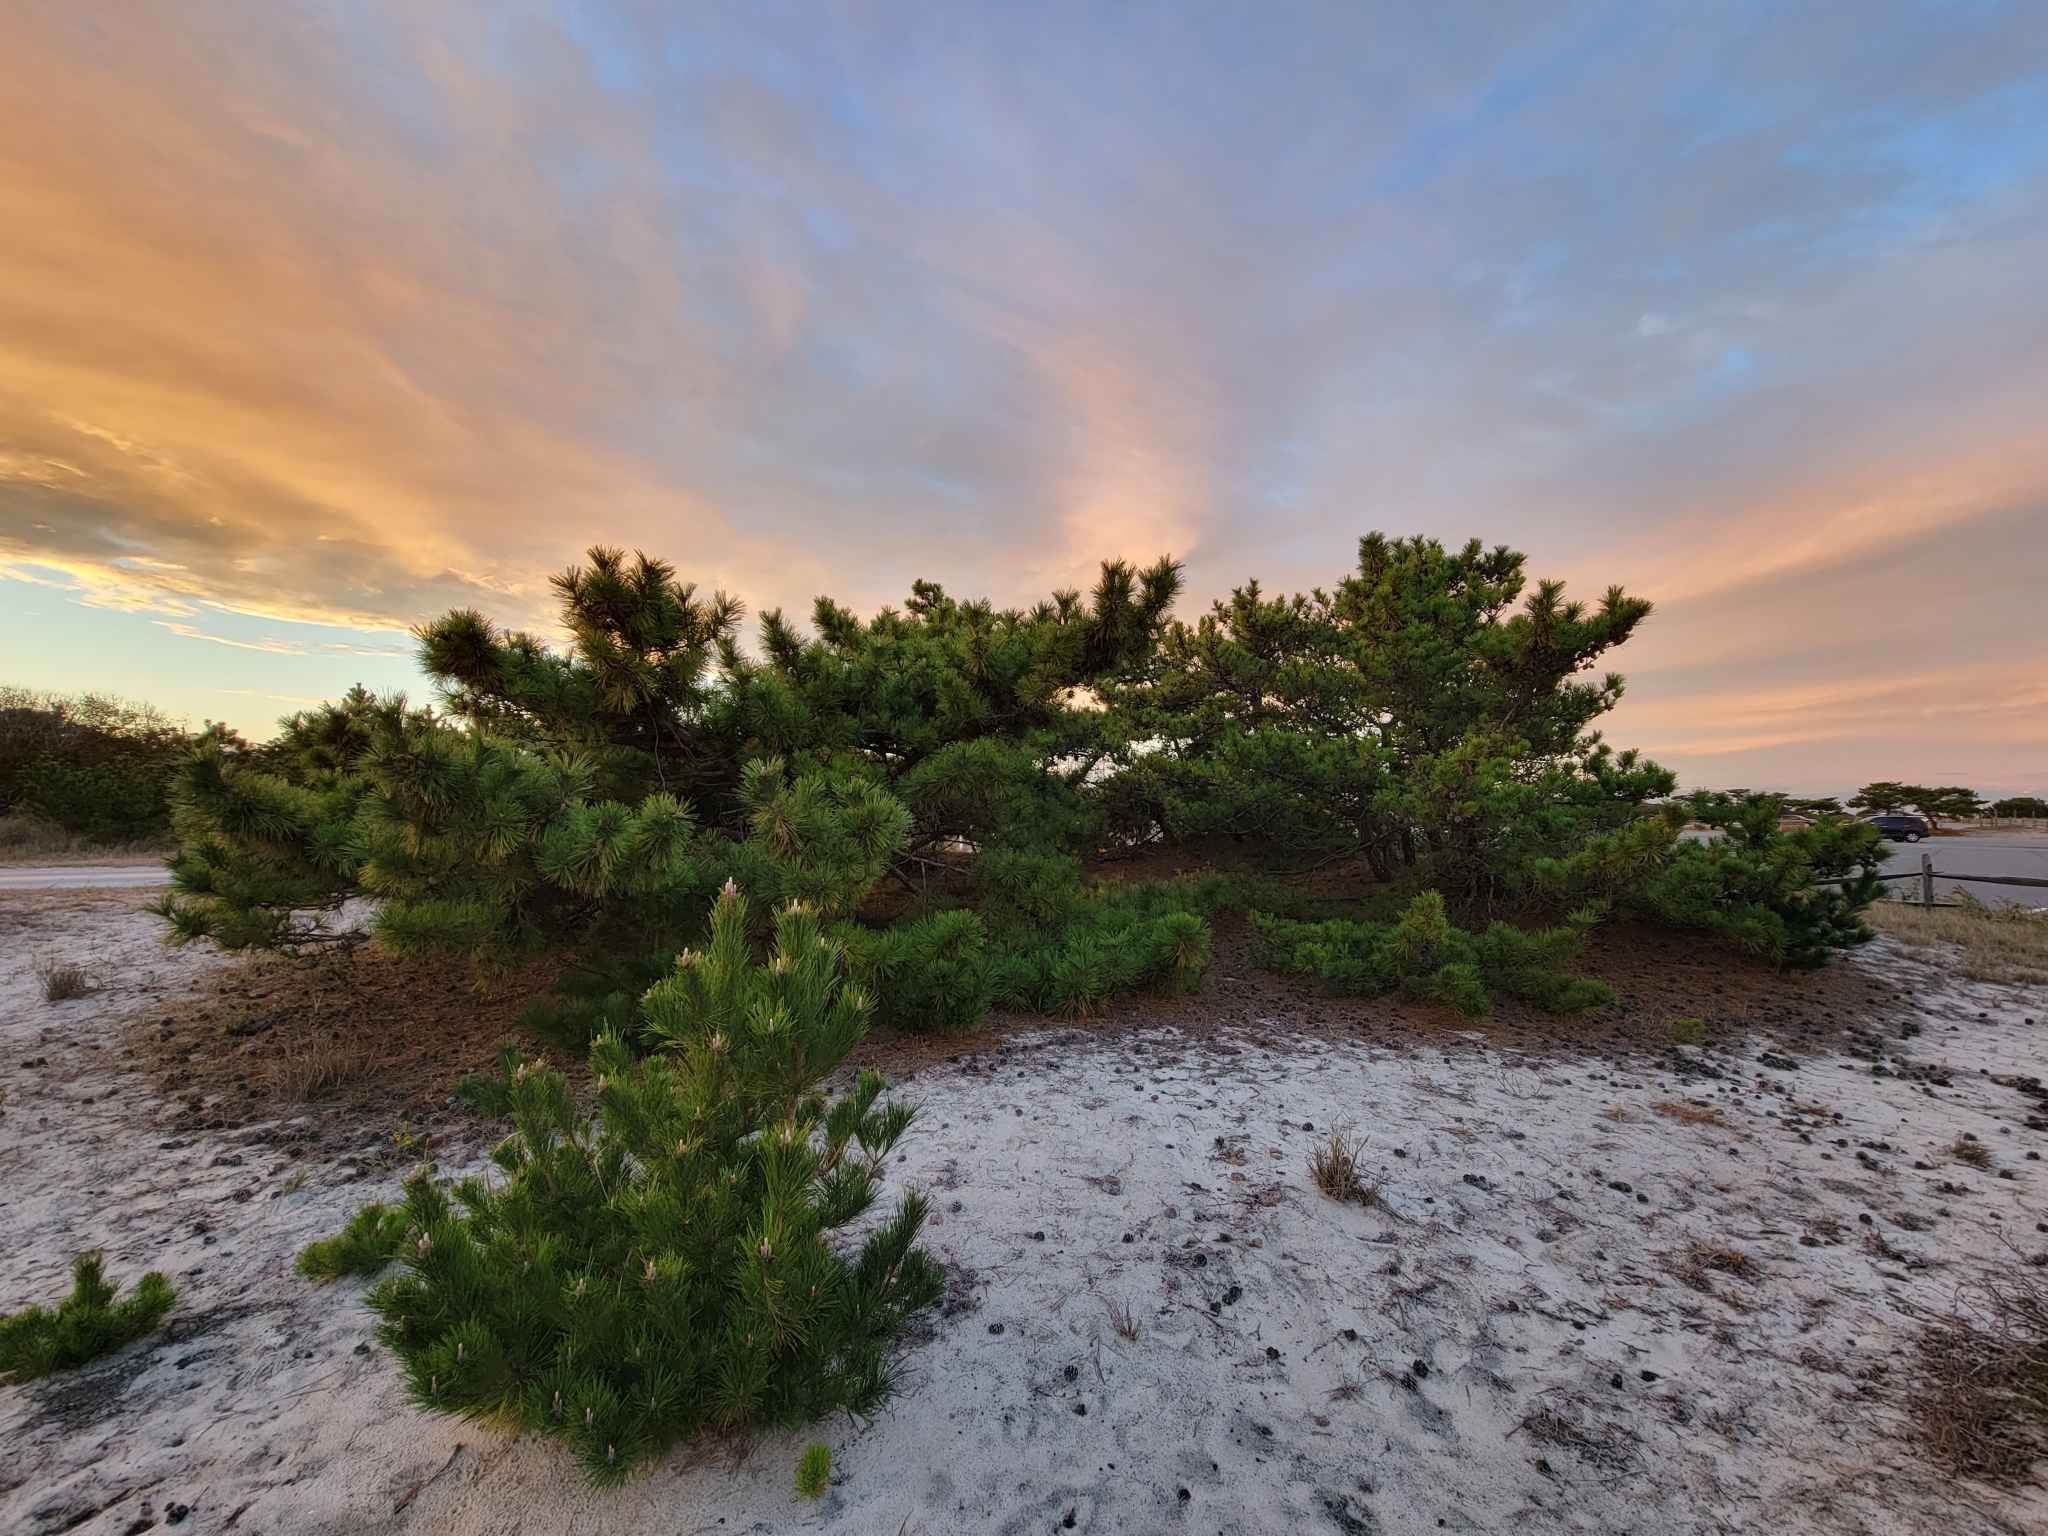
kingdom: Plantae
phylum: Tracheophyta
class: Pinopsida
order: Pinales
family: Pinaceae
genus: Pinus
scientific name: Pinus thunbergii
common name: Japanese black pine
